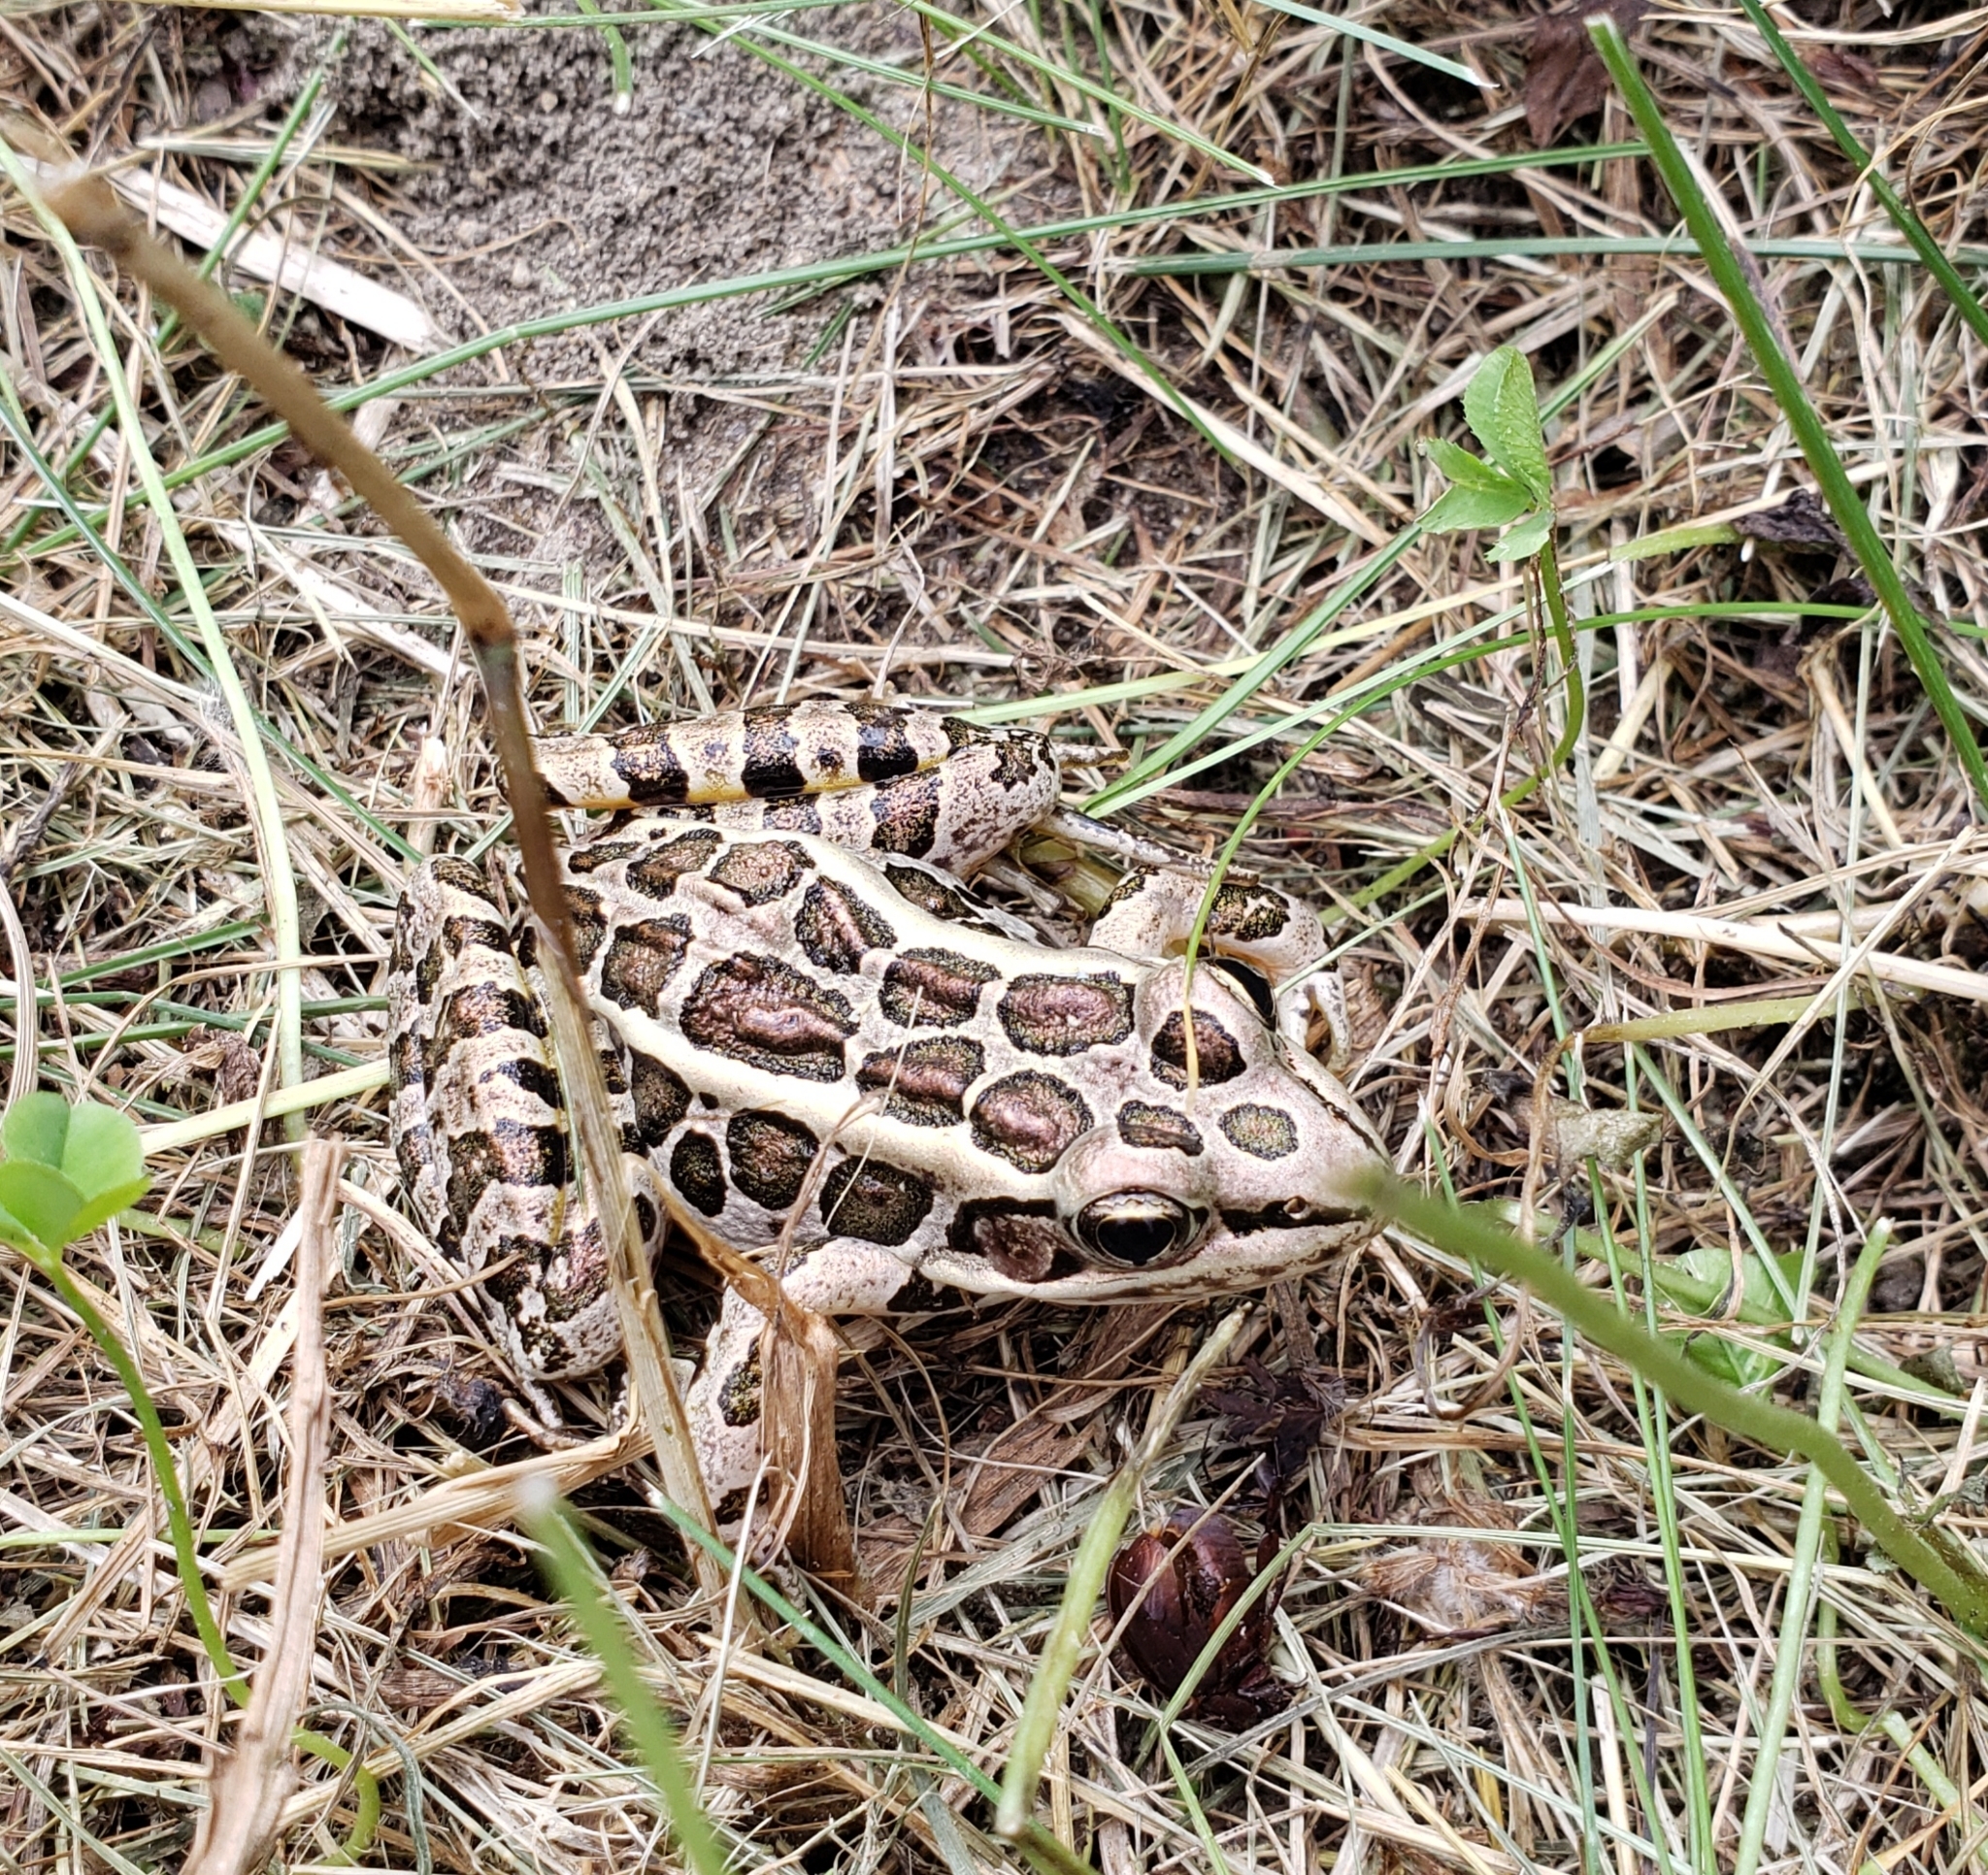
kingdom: Animalia
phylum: Chordata
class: Amphibia
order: Anura
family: Ranidae
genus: Lithobates
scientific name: Lithobates palustris
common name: Pickerel frog
